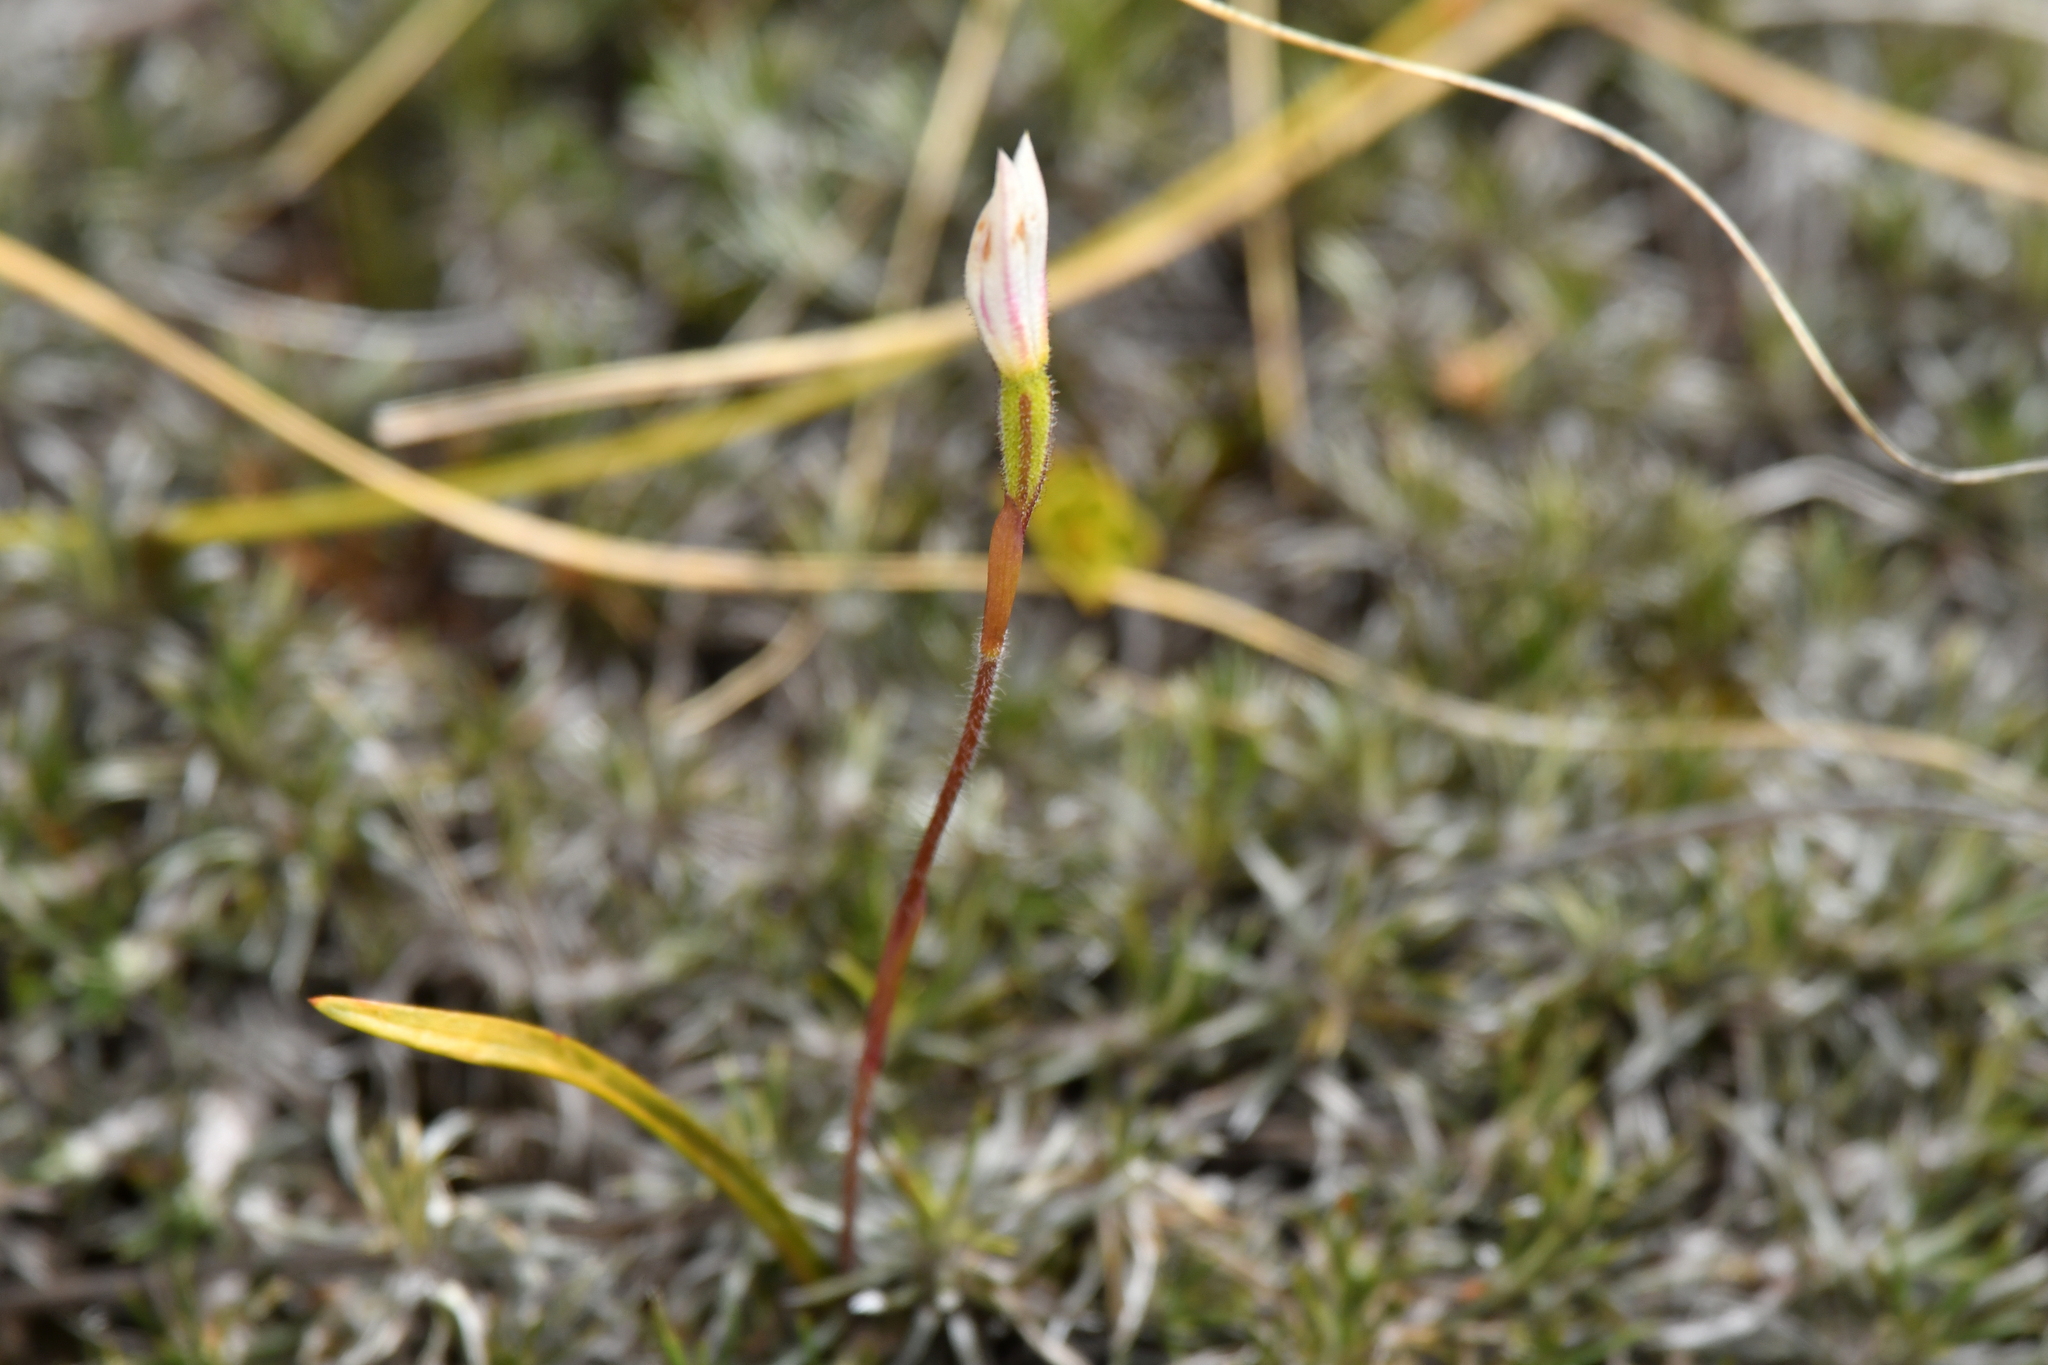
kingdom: Plantae
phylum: Tracheophyta
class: Liliopsida
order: Asparagales
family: Orchidaceae
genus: Caladenia
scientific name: Caladenia lyallii
